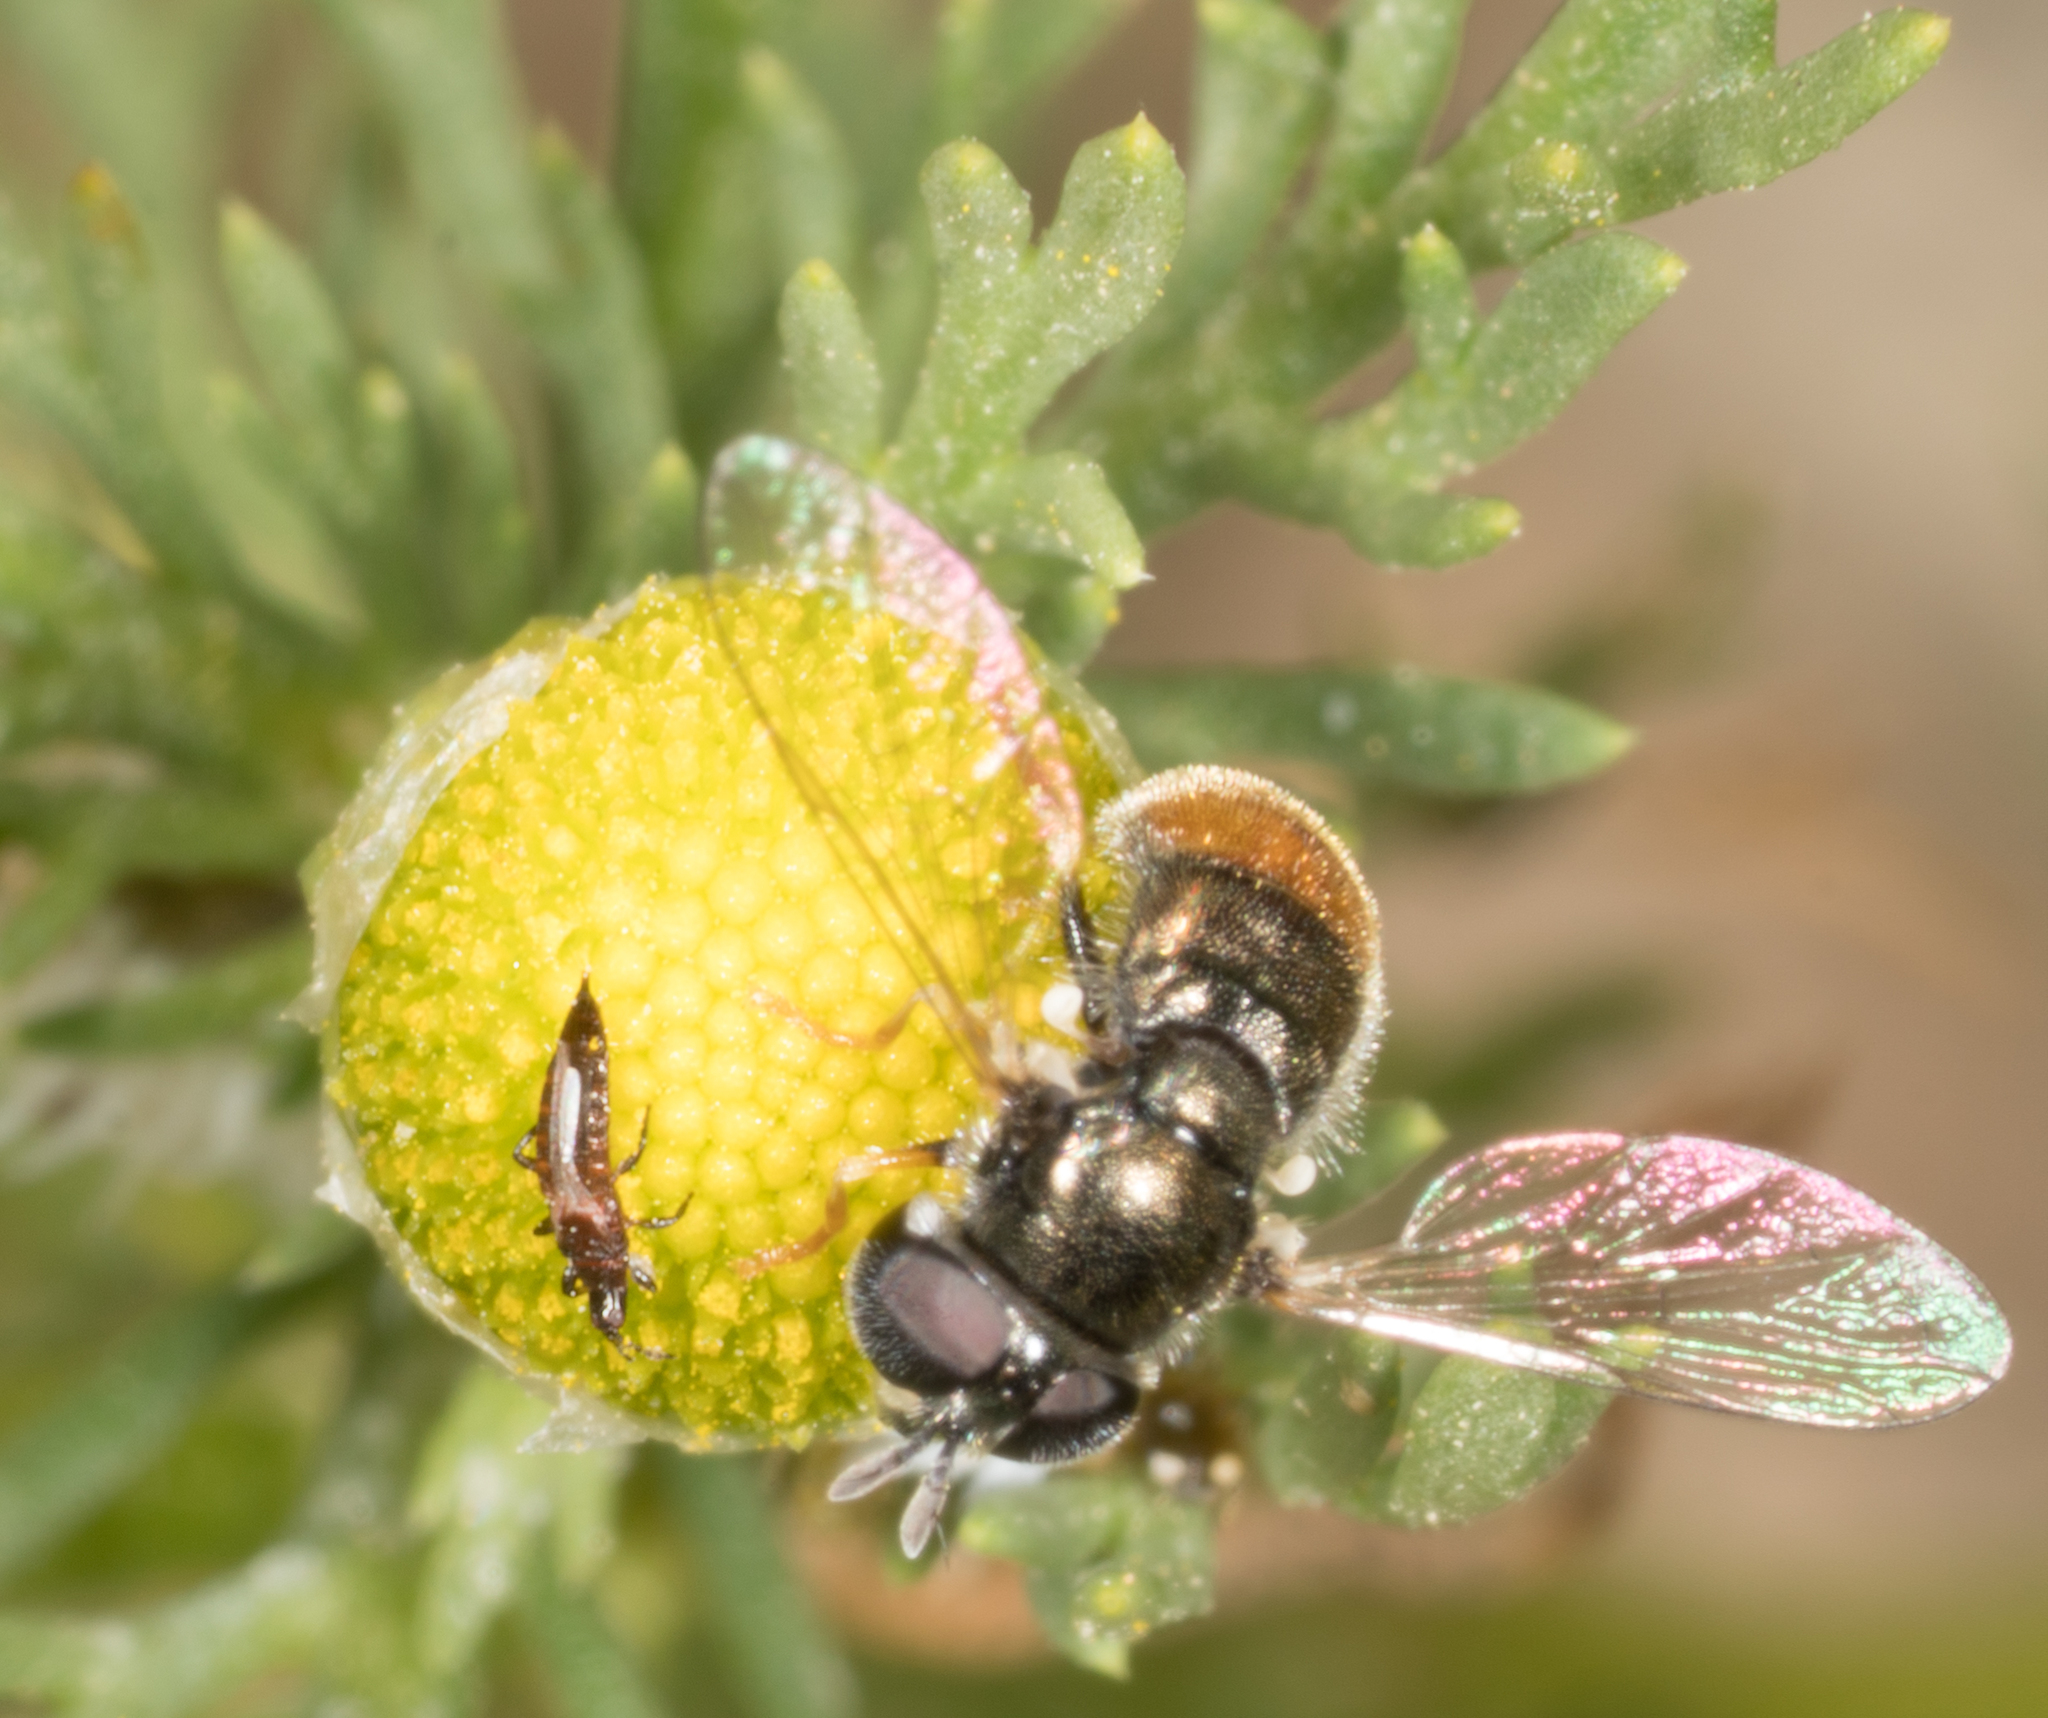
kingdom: Animalia
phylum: Arthropoda
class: Insecta
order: Diptera
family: Syrphidae
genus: Paragus
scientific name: Paragus haemorrhous
